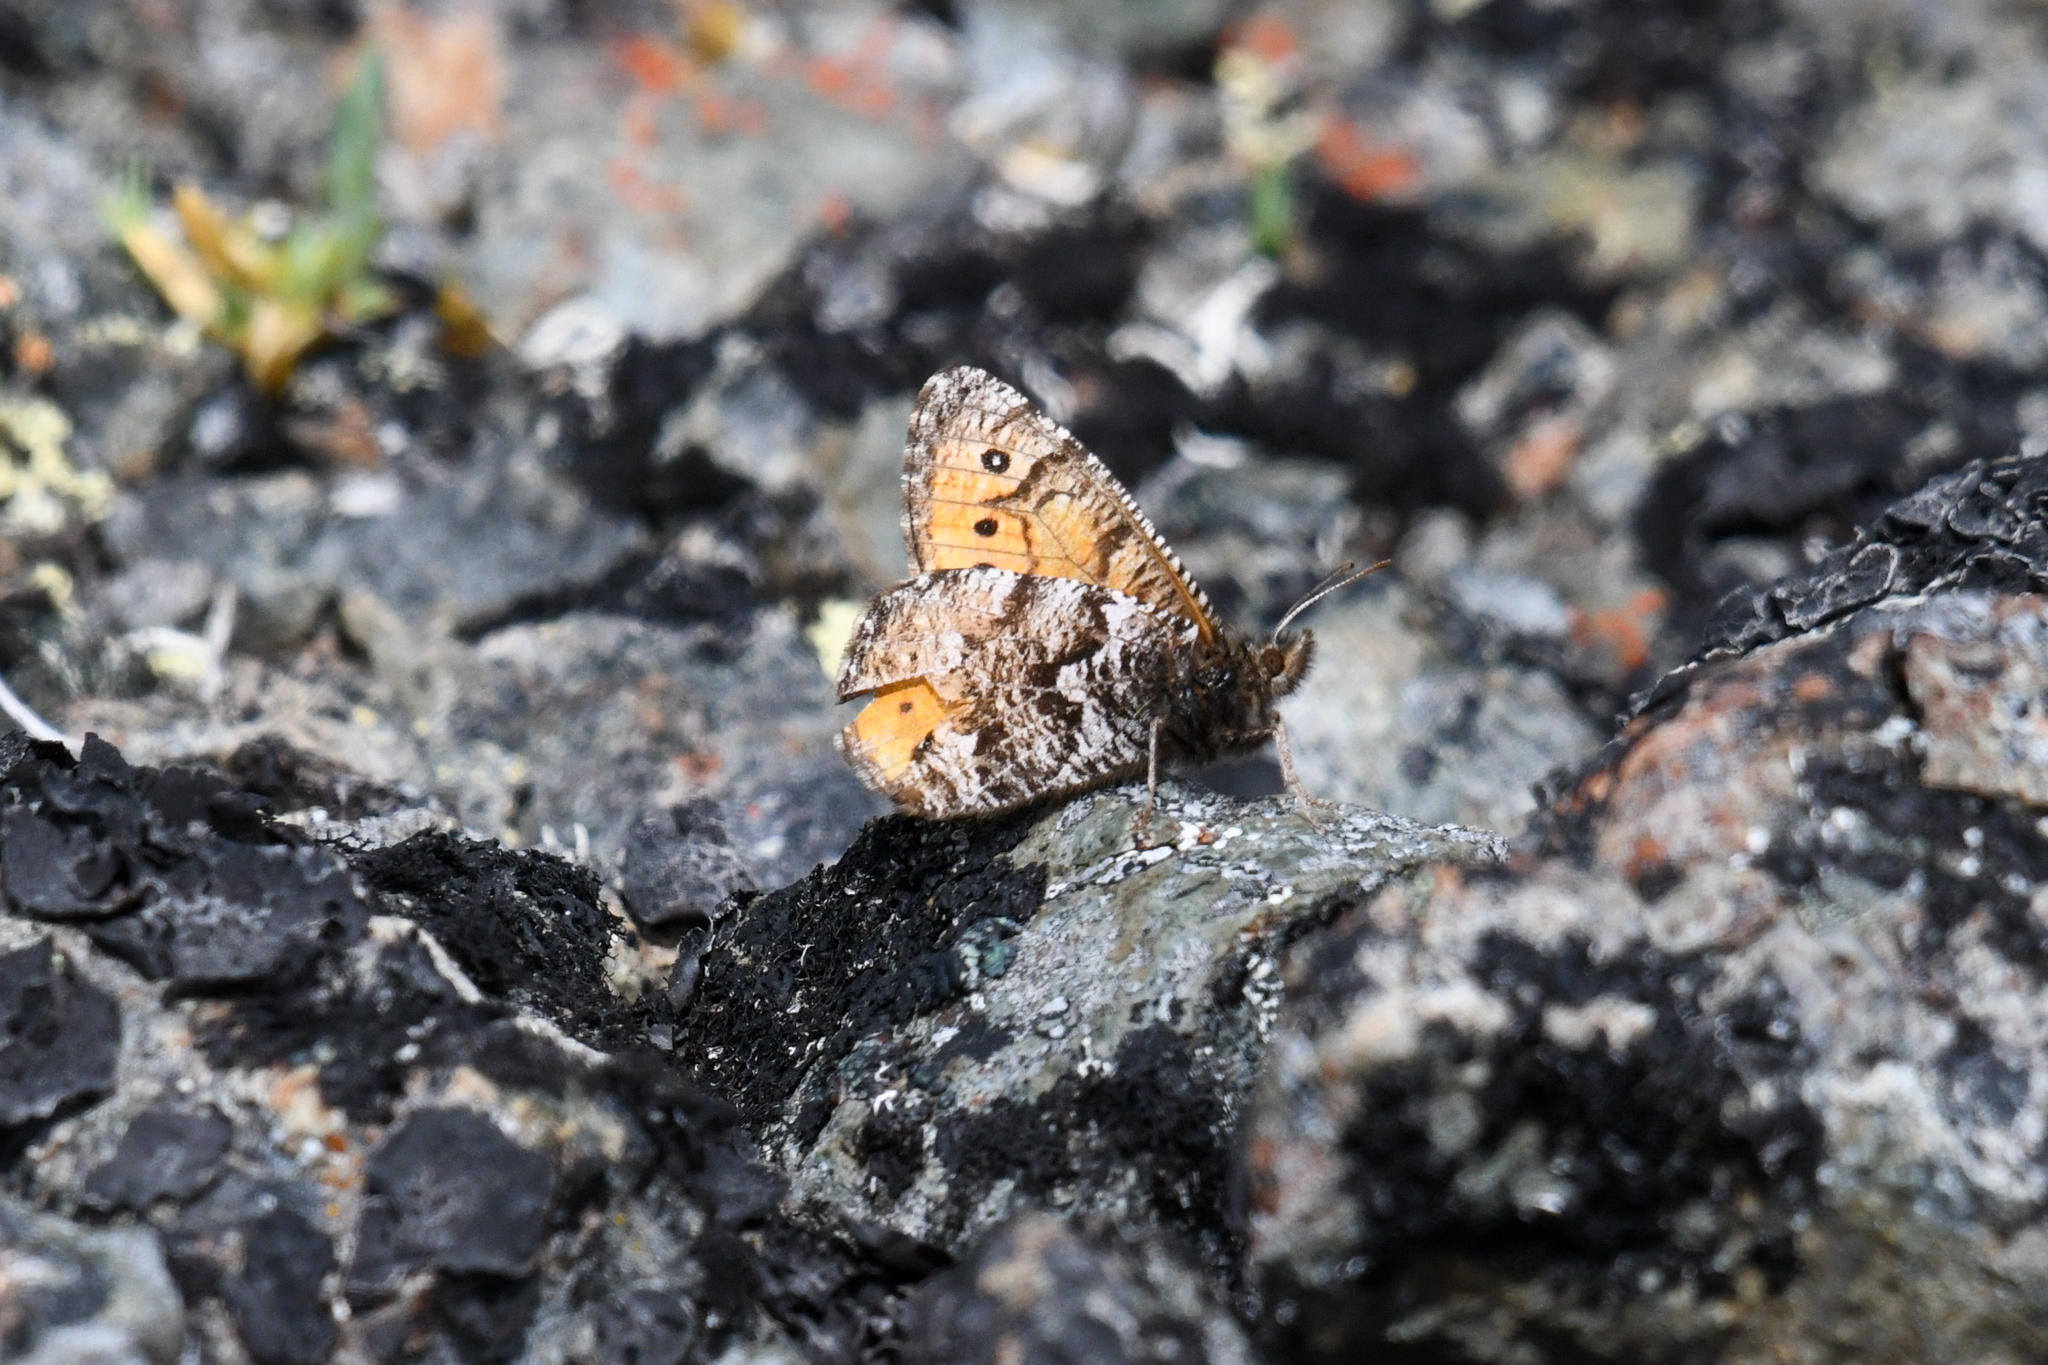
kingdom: Animalia
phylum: Arthropoda
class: Insecta
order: Lepidoptera
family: Nymphalidae
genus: Oeneis
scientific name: Oeneis chryxus
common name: Chryxus arctic
